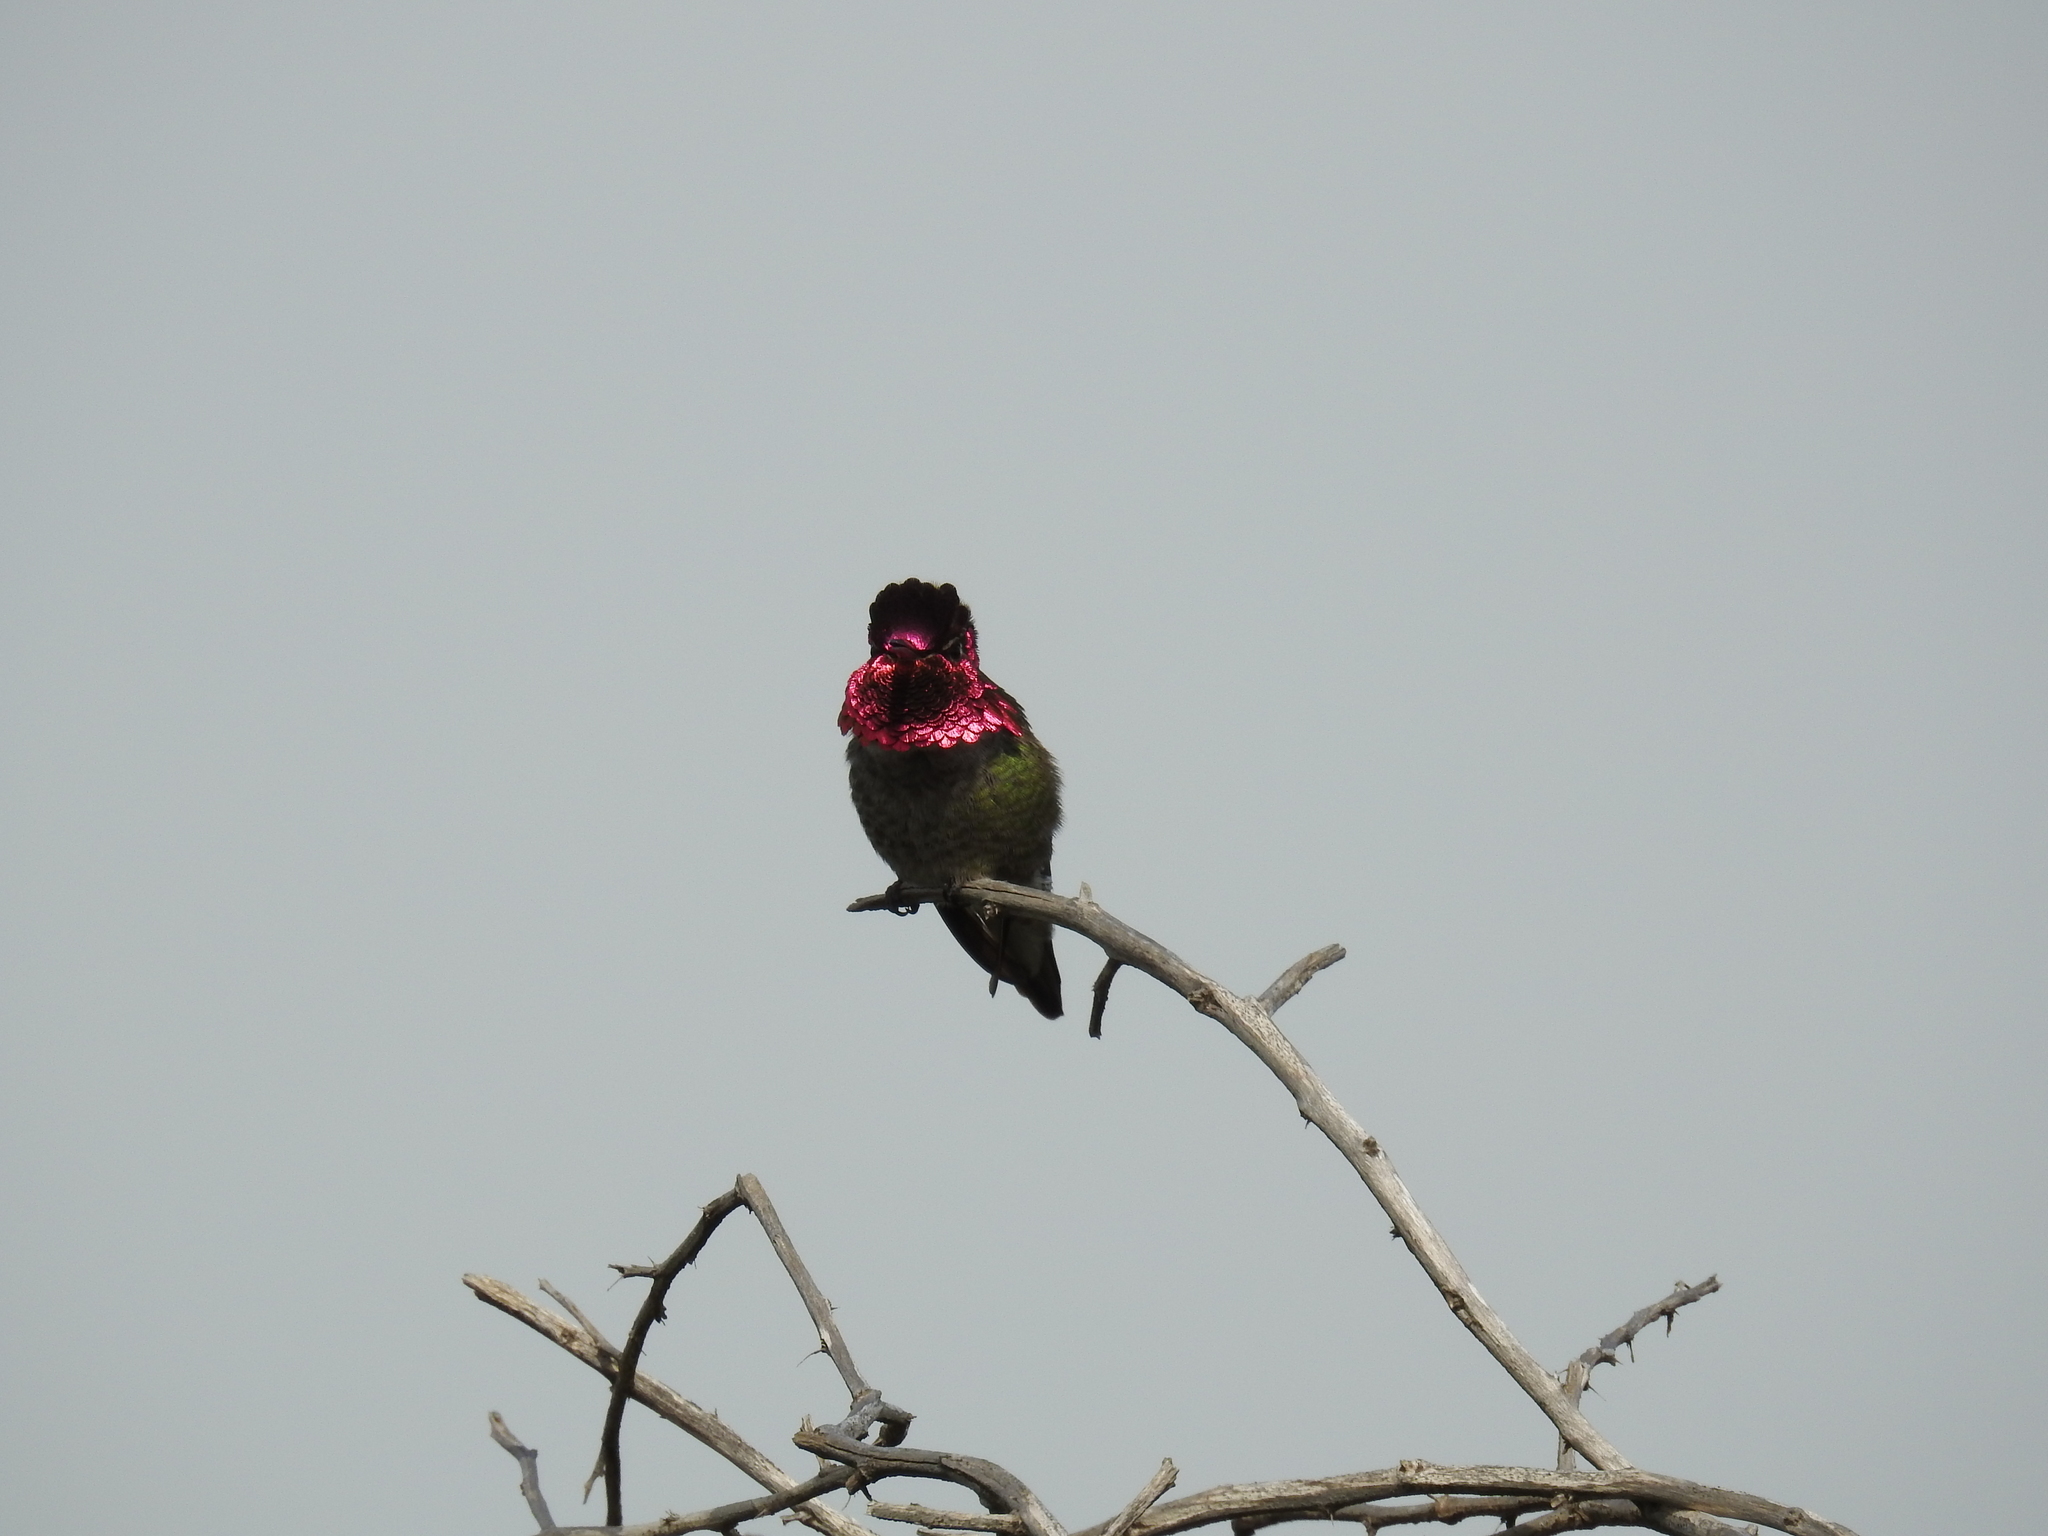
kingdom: Animalia
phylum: Chordata
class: Aves
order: Apodiformes
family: Trochilidae
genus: Calypte
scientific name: Calypte anna
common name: Anna's hummingbird
